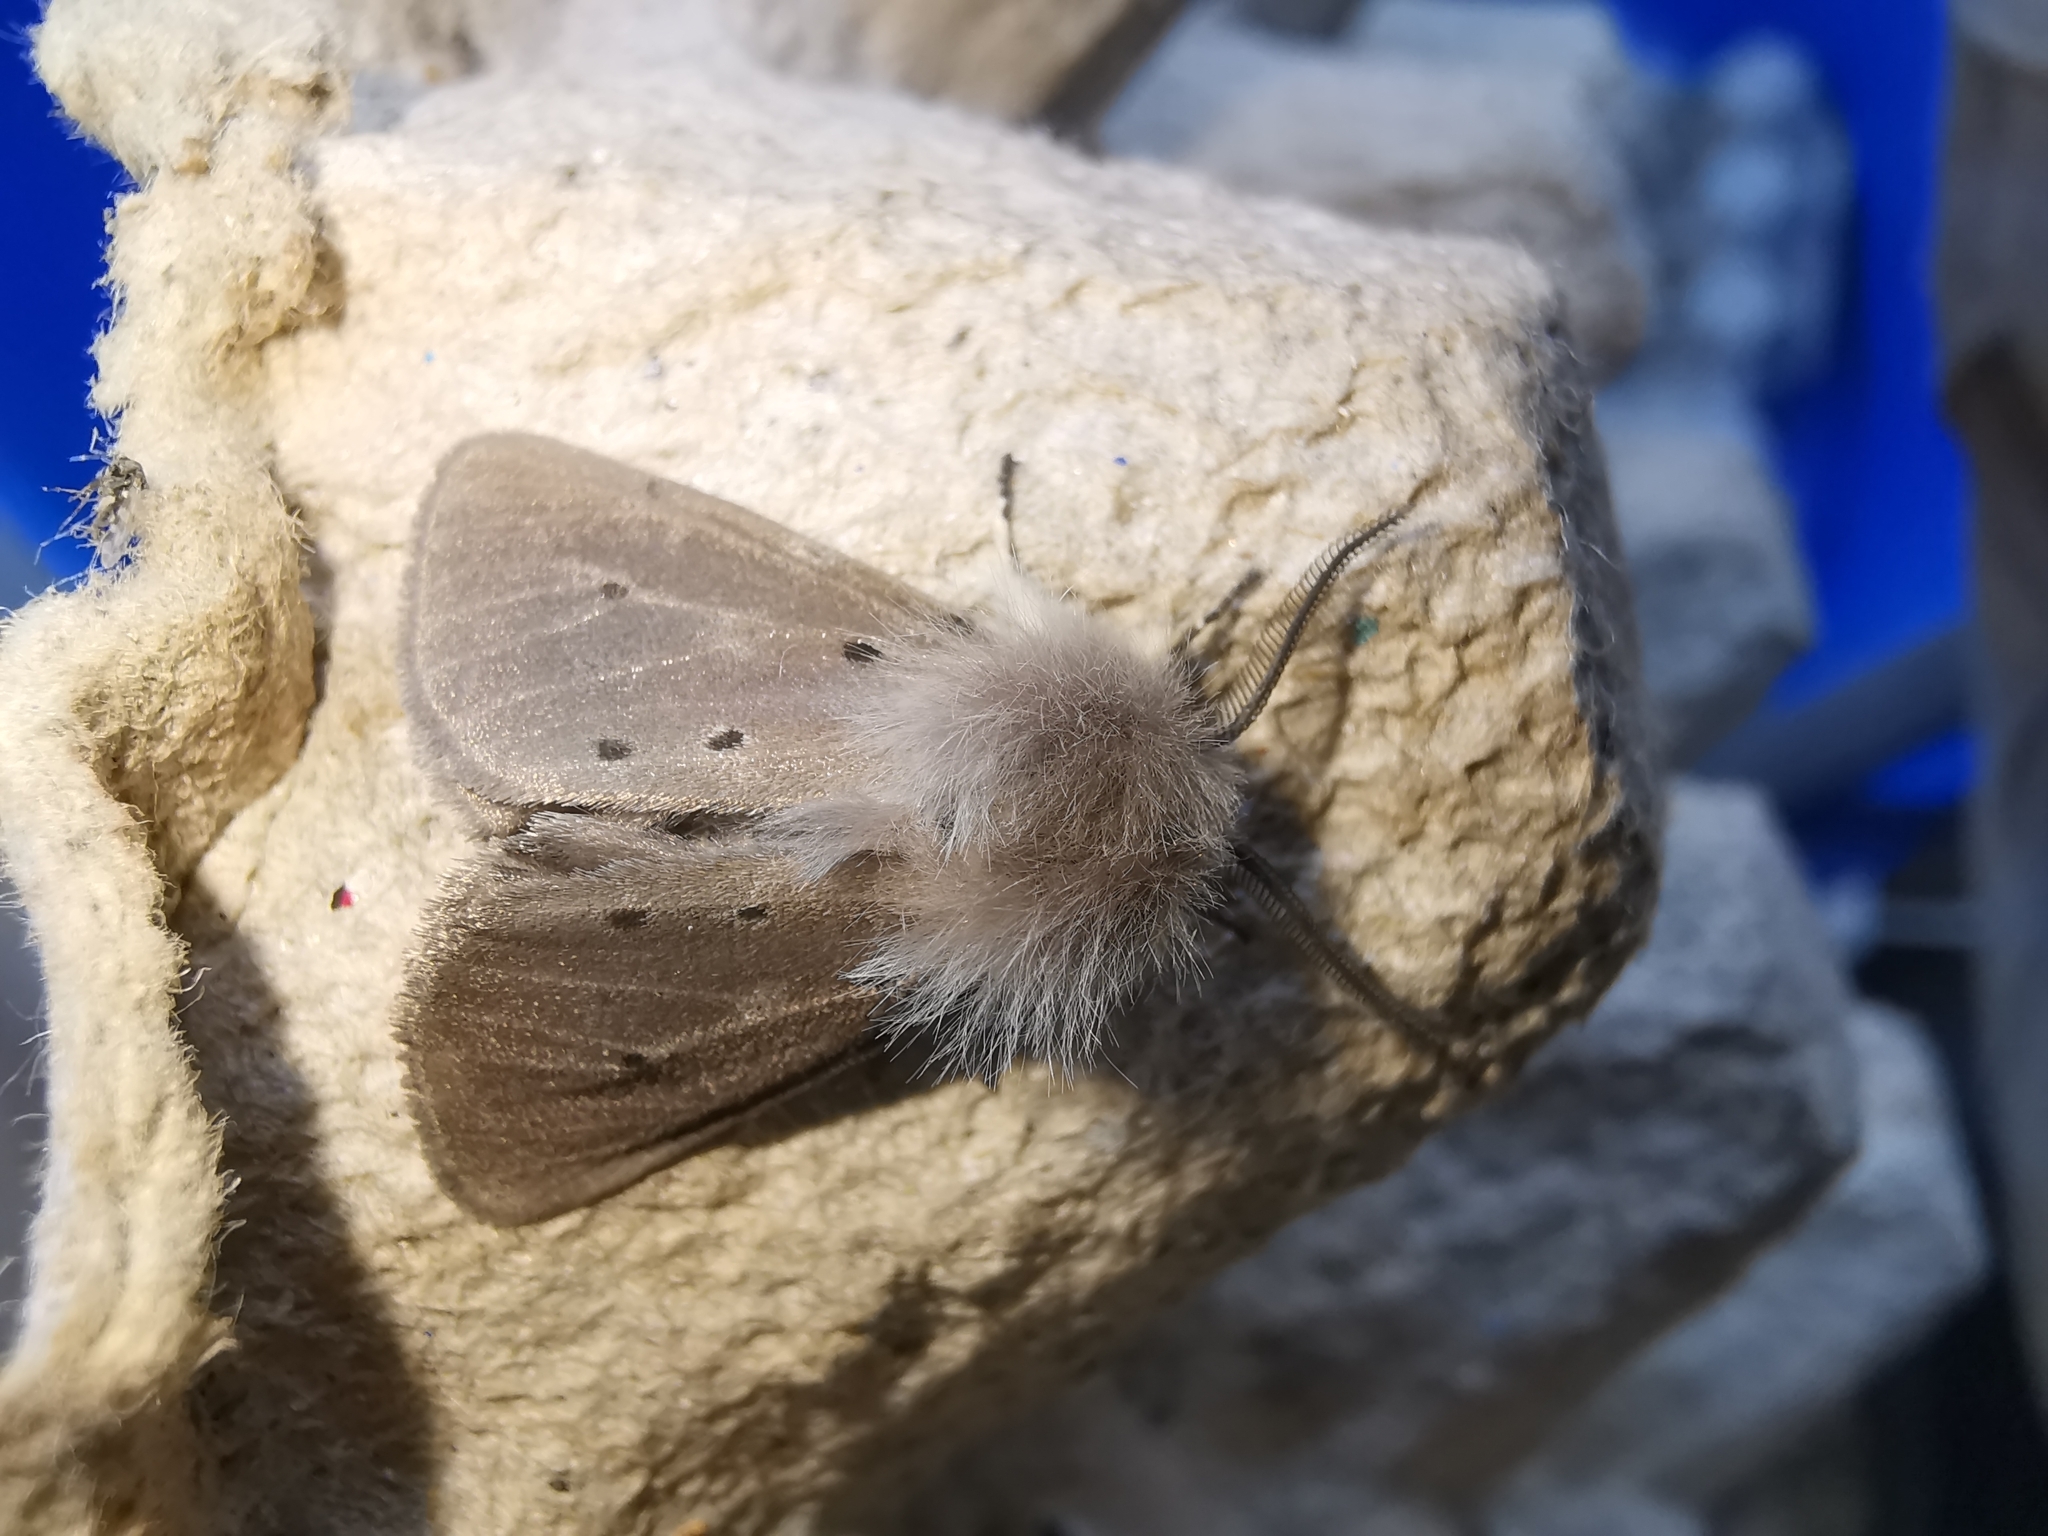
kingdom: Animalia
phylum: Arthropoda
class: Insecta
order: Lepidoptera
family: Erebidae
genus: Diaphora
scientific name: Diaphora mendica
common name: Muslin moth
